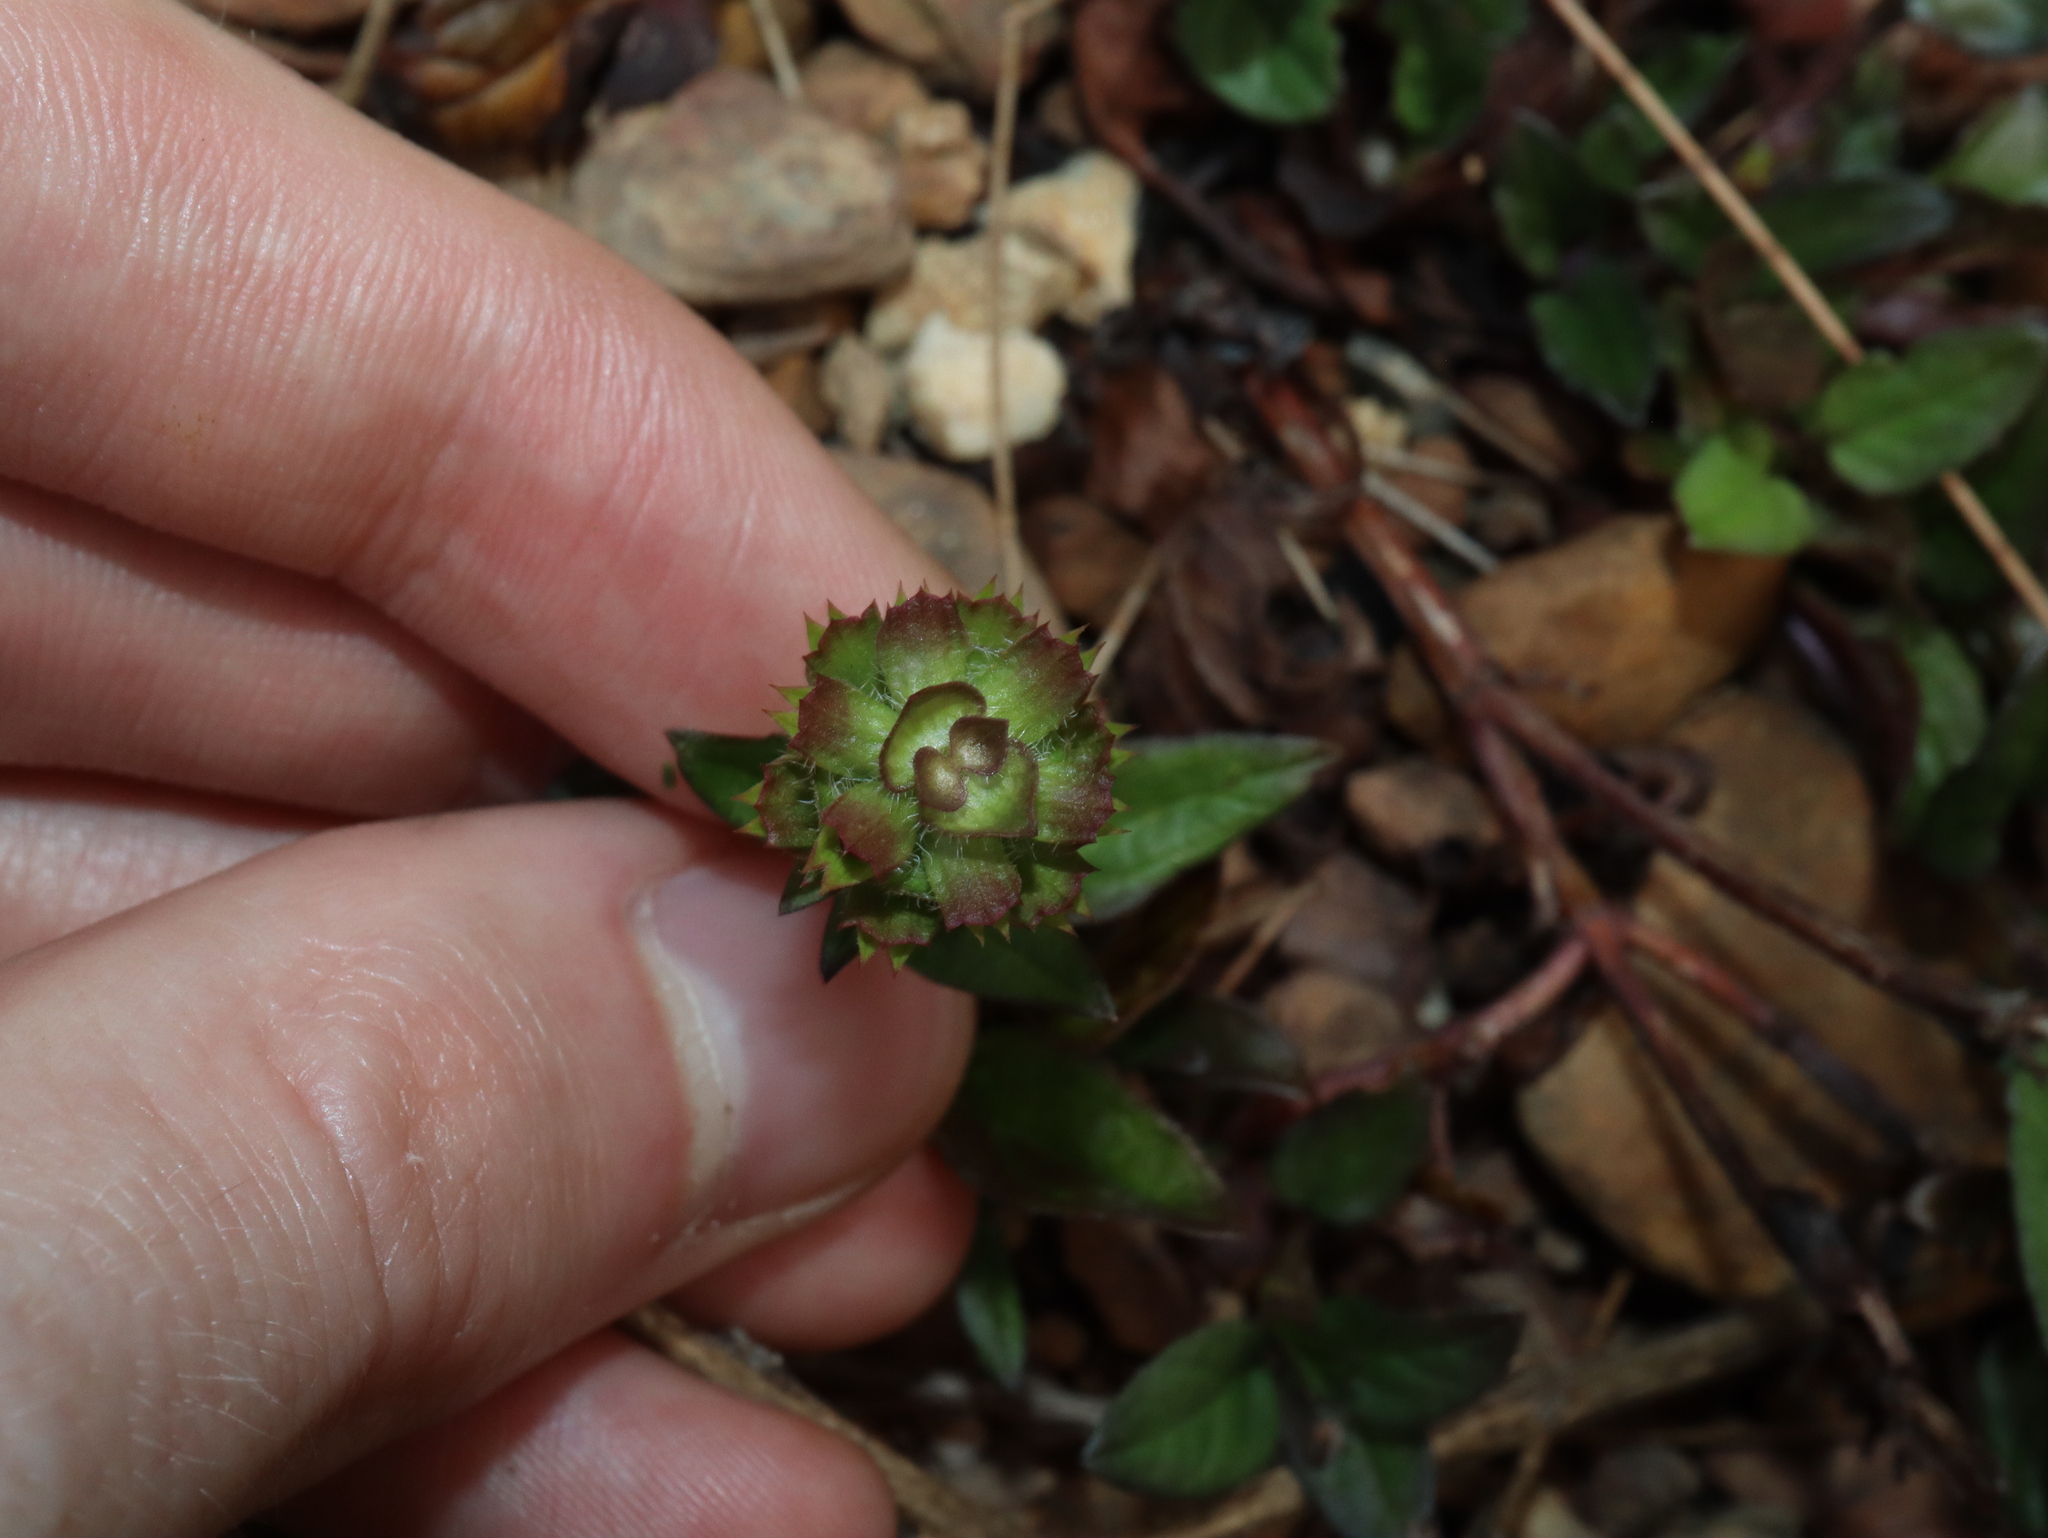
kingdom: Plantae
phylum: Tracheophyta
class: Magnoliopsida
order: Lamiales
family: Lamiaceae
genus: Prunella
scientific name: Prunella vulgaris
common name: Heal-all
